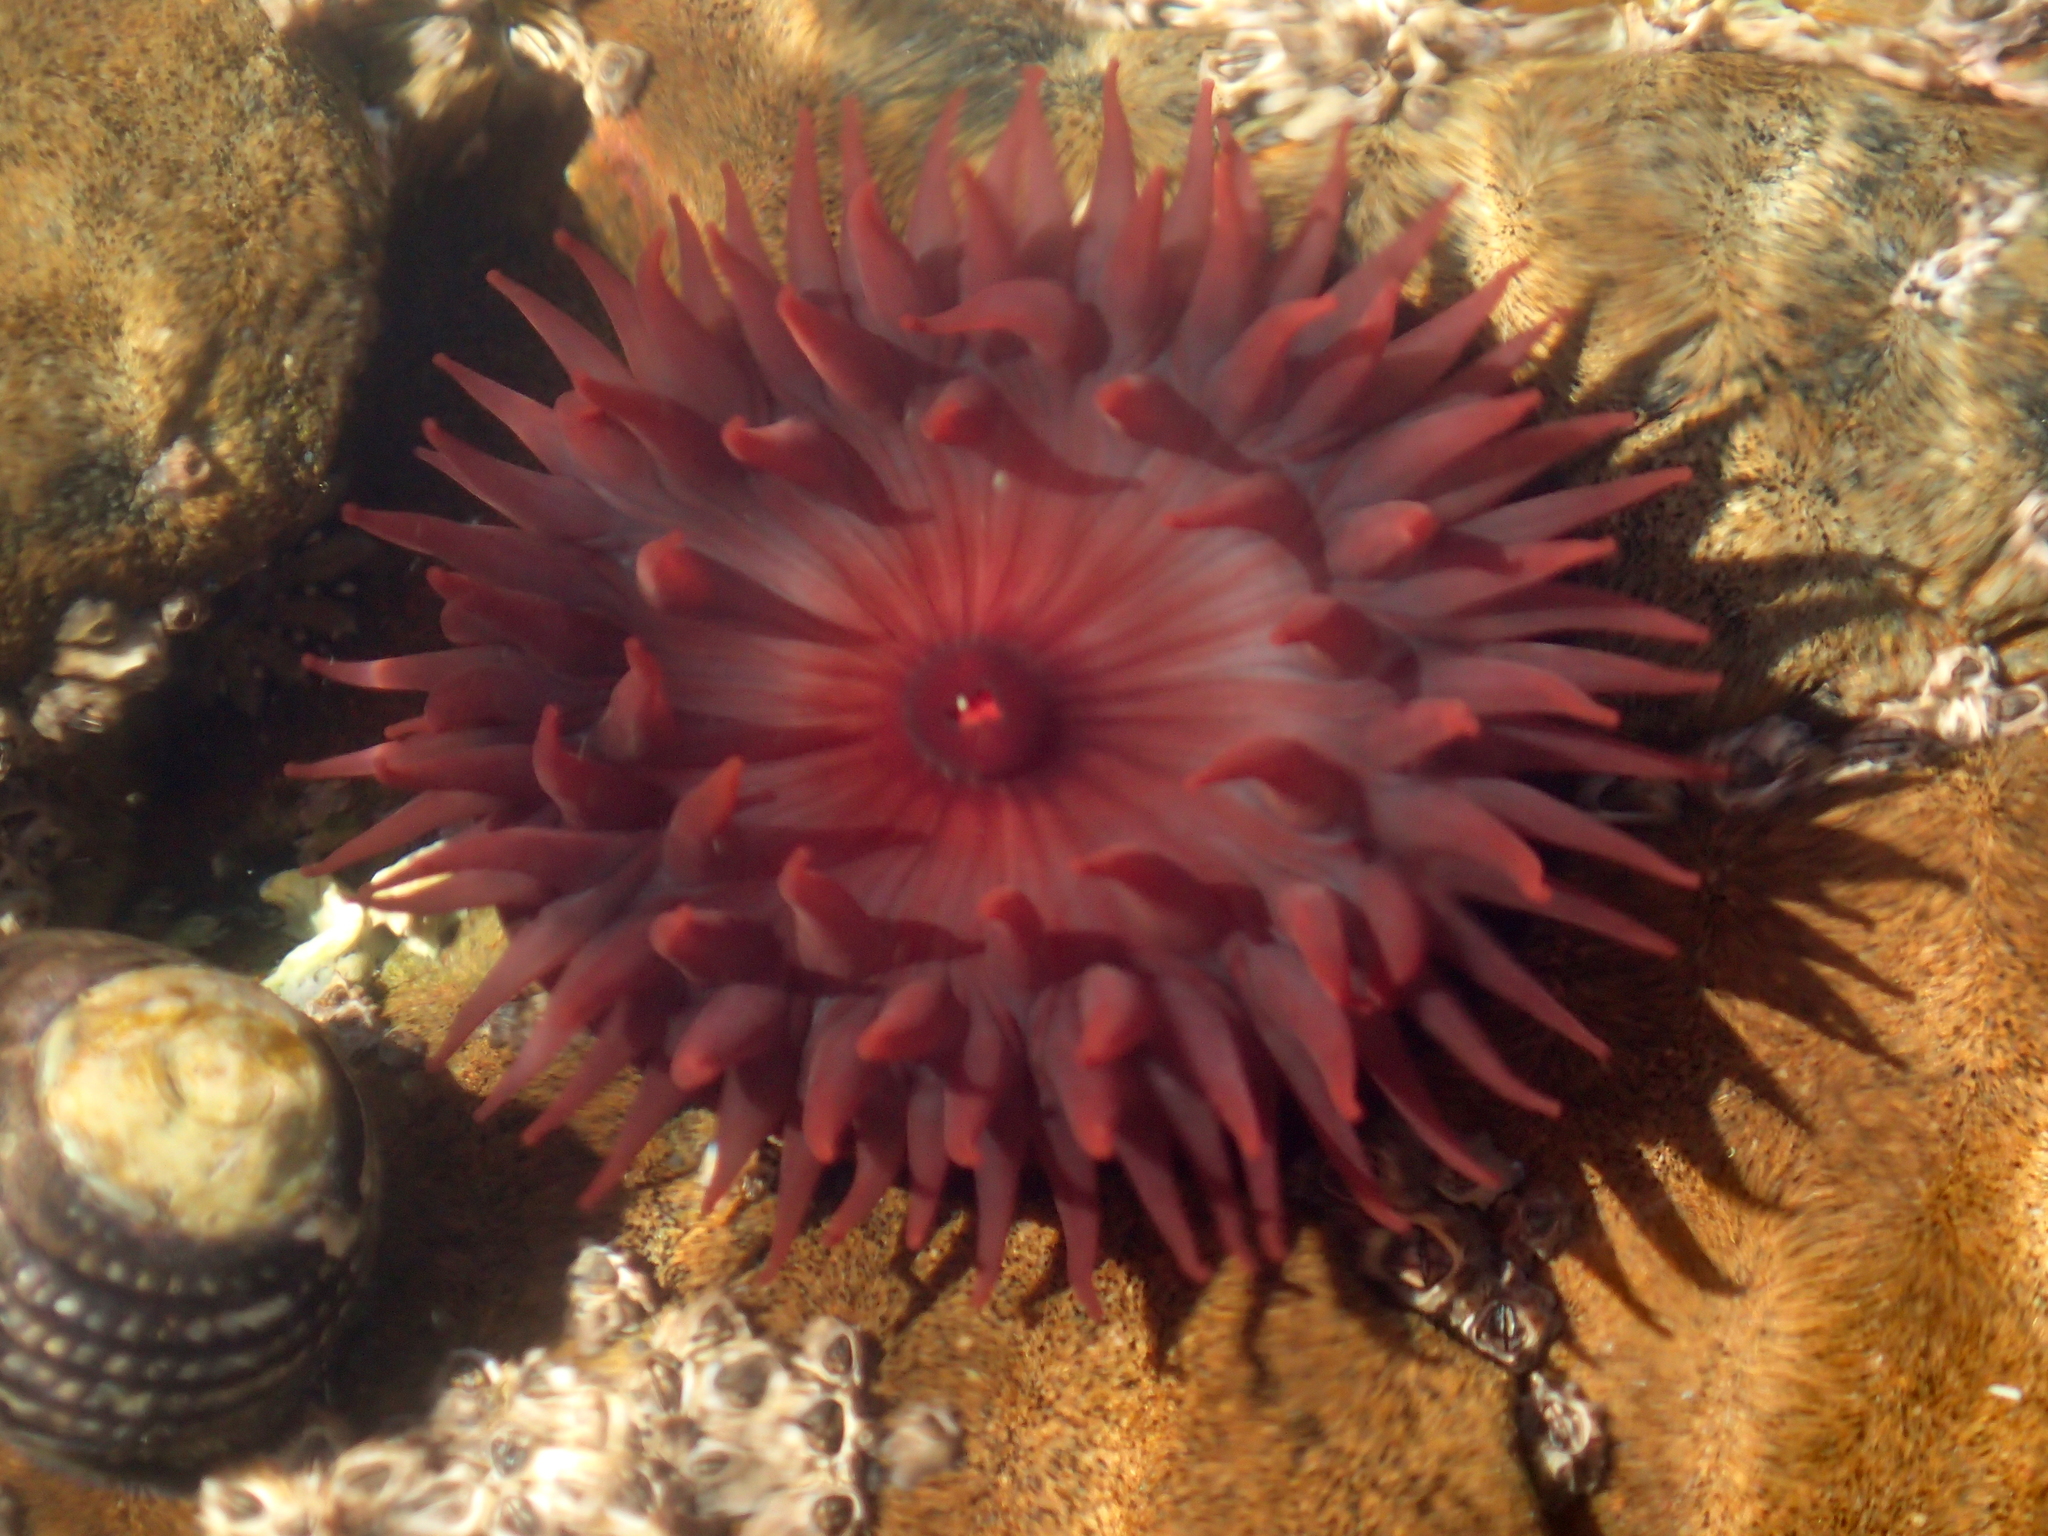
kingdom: Animalia
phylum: Cnidaria
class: Anthozoa
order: Actiniaria
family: Actiniidae
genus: Actinia
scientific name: Actinia tenebrosa
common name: Waratah anemone
